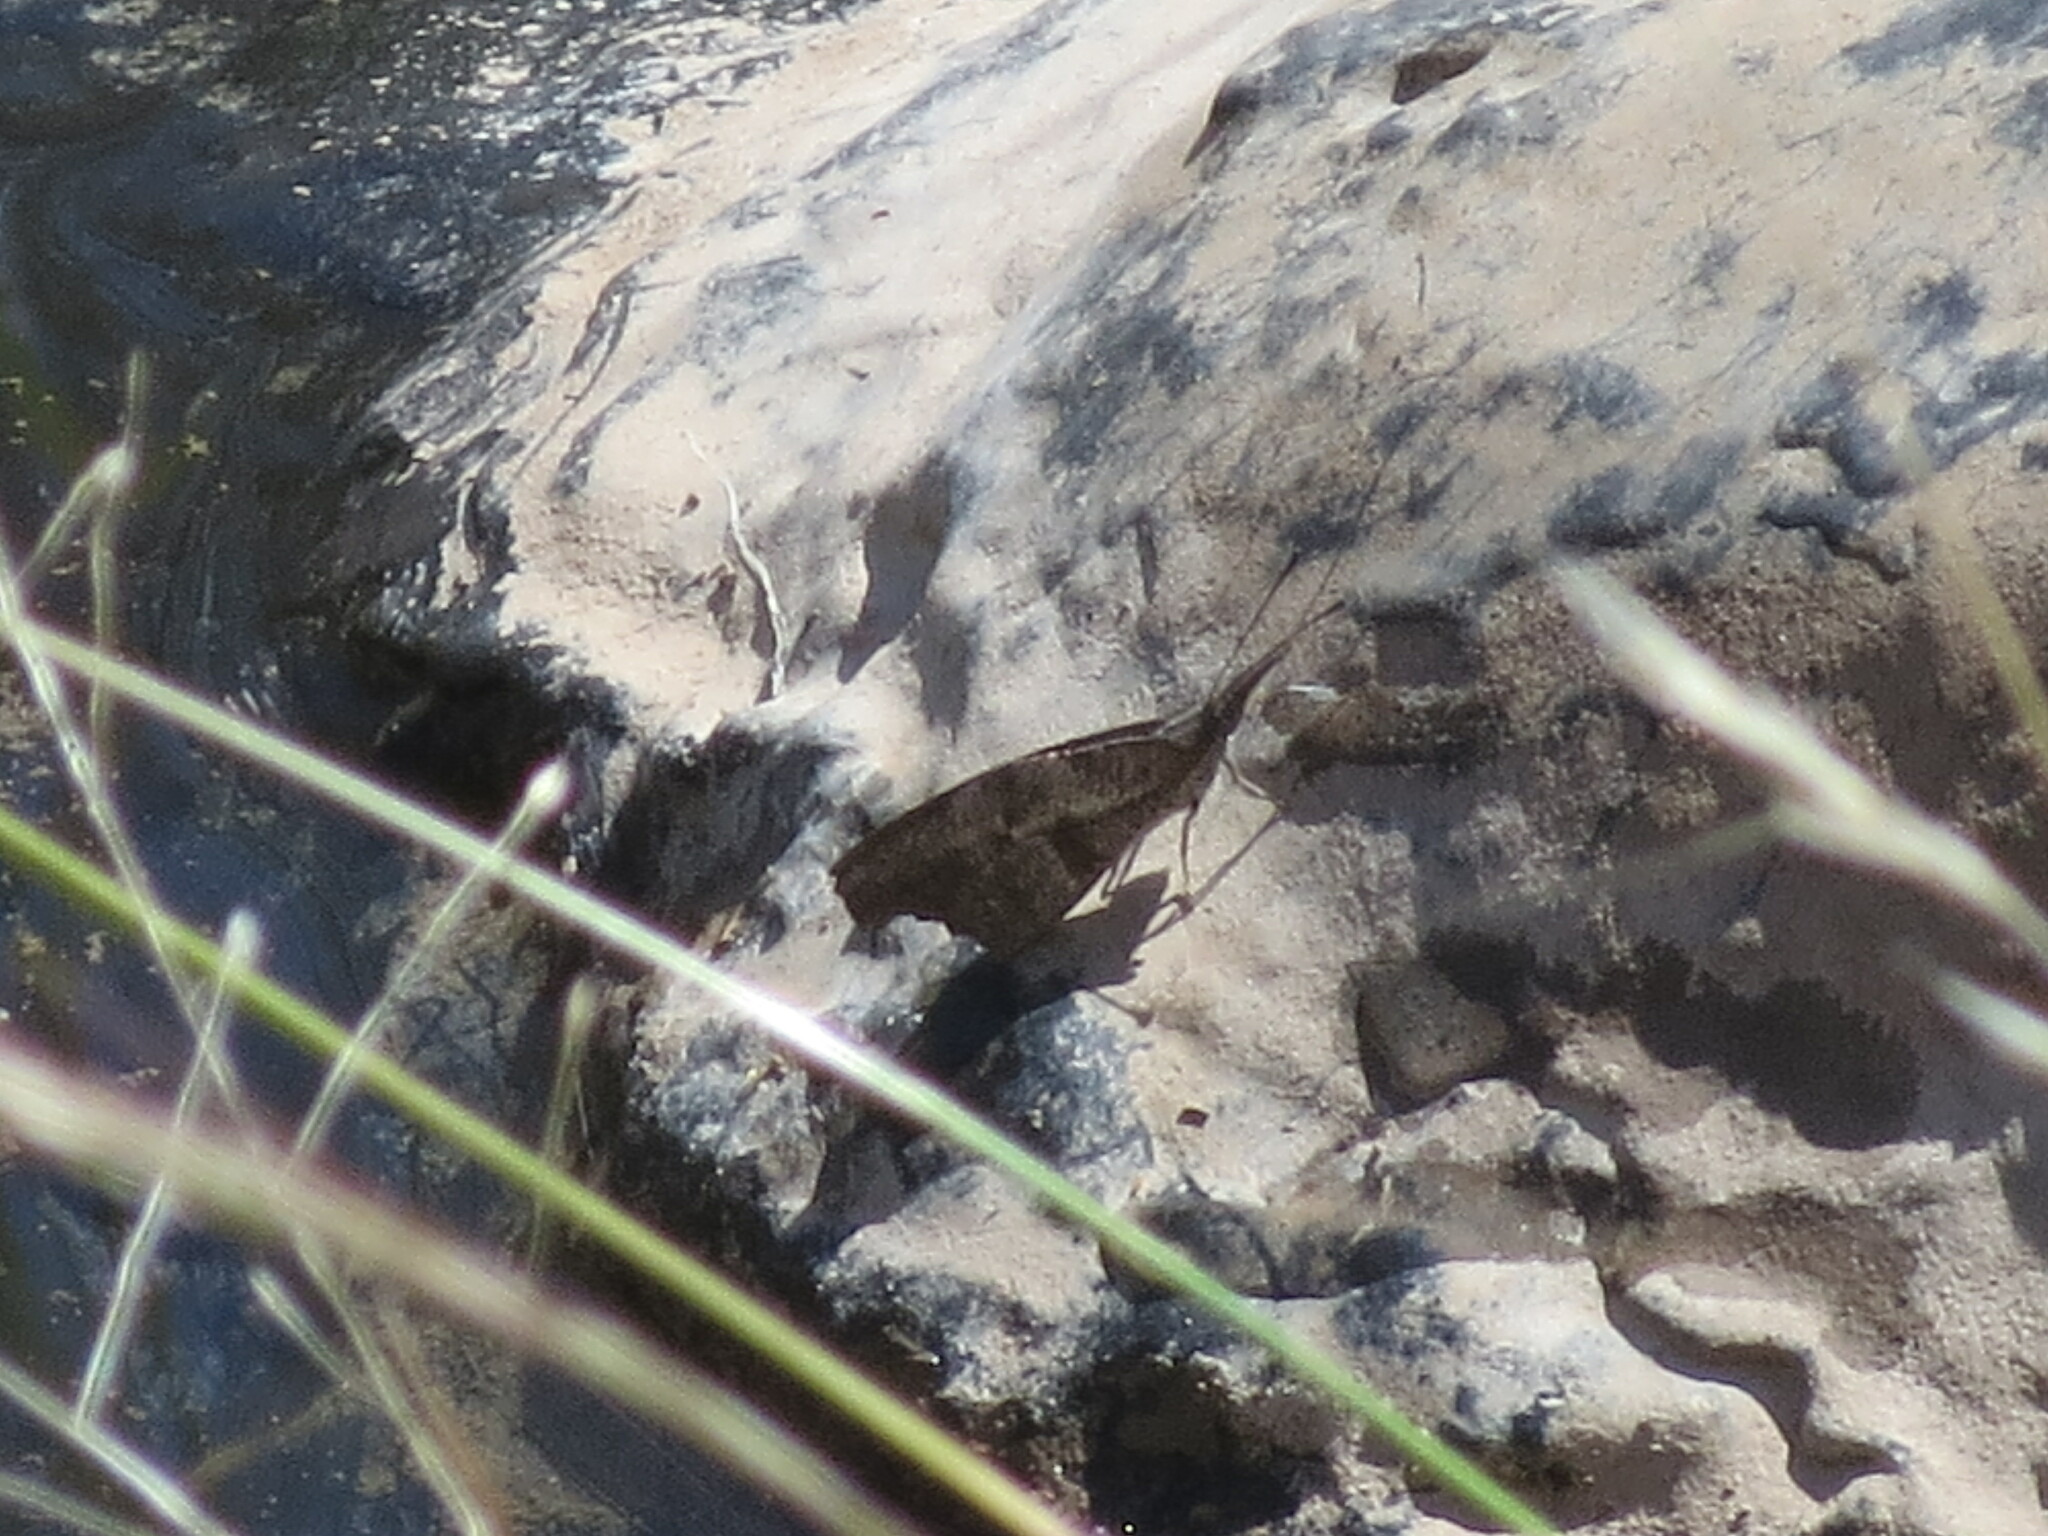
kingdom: Animalia
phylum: Arthropoda
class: Insecta
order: Lepidoptera
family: Nymphalidae
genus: Libytheana
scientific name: Libytheana carinenta
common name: American snout
